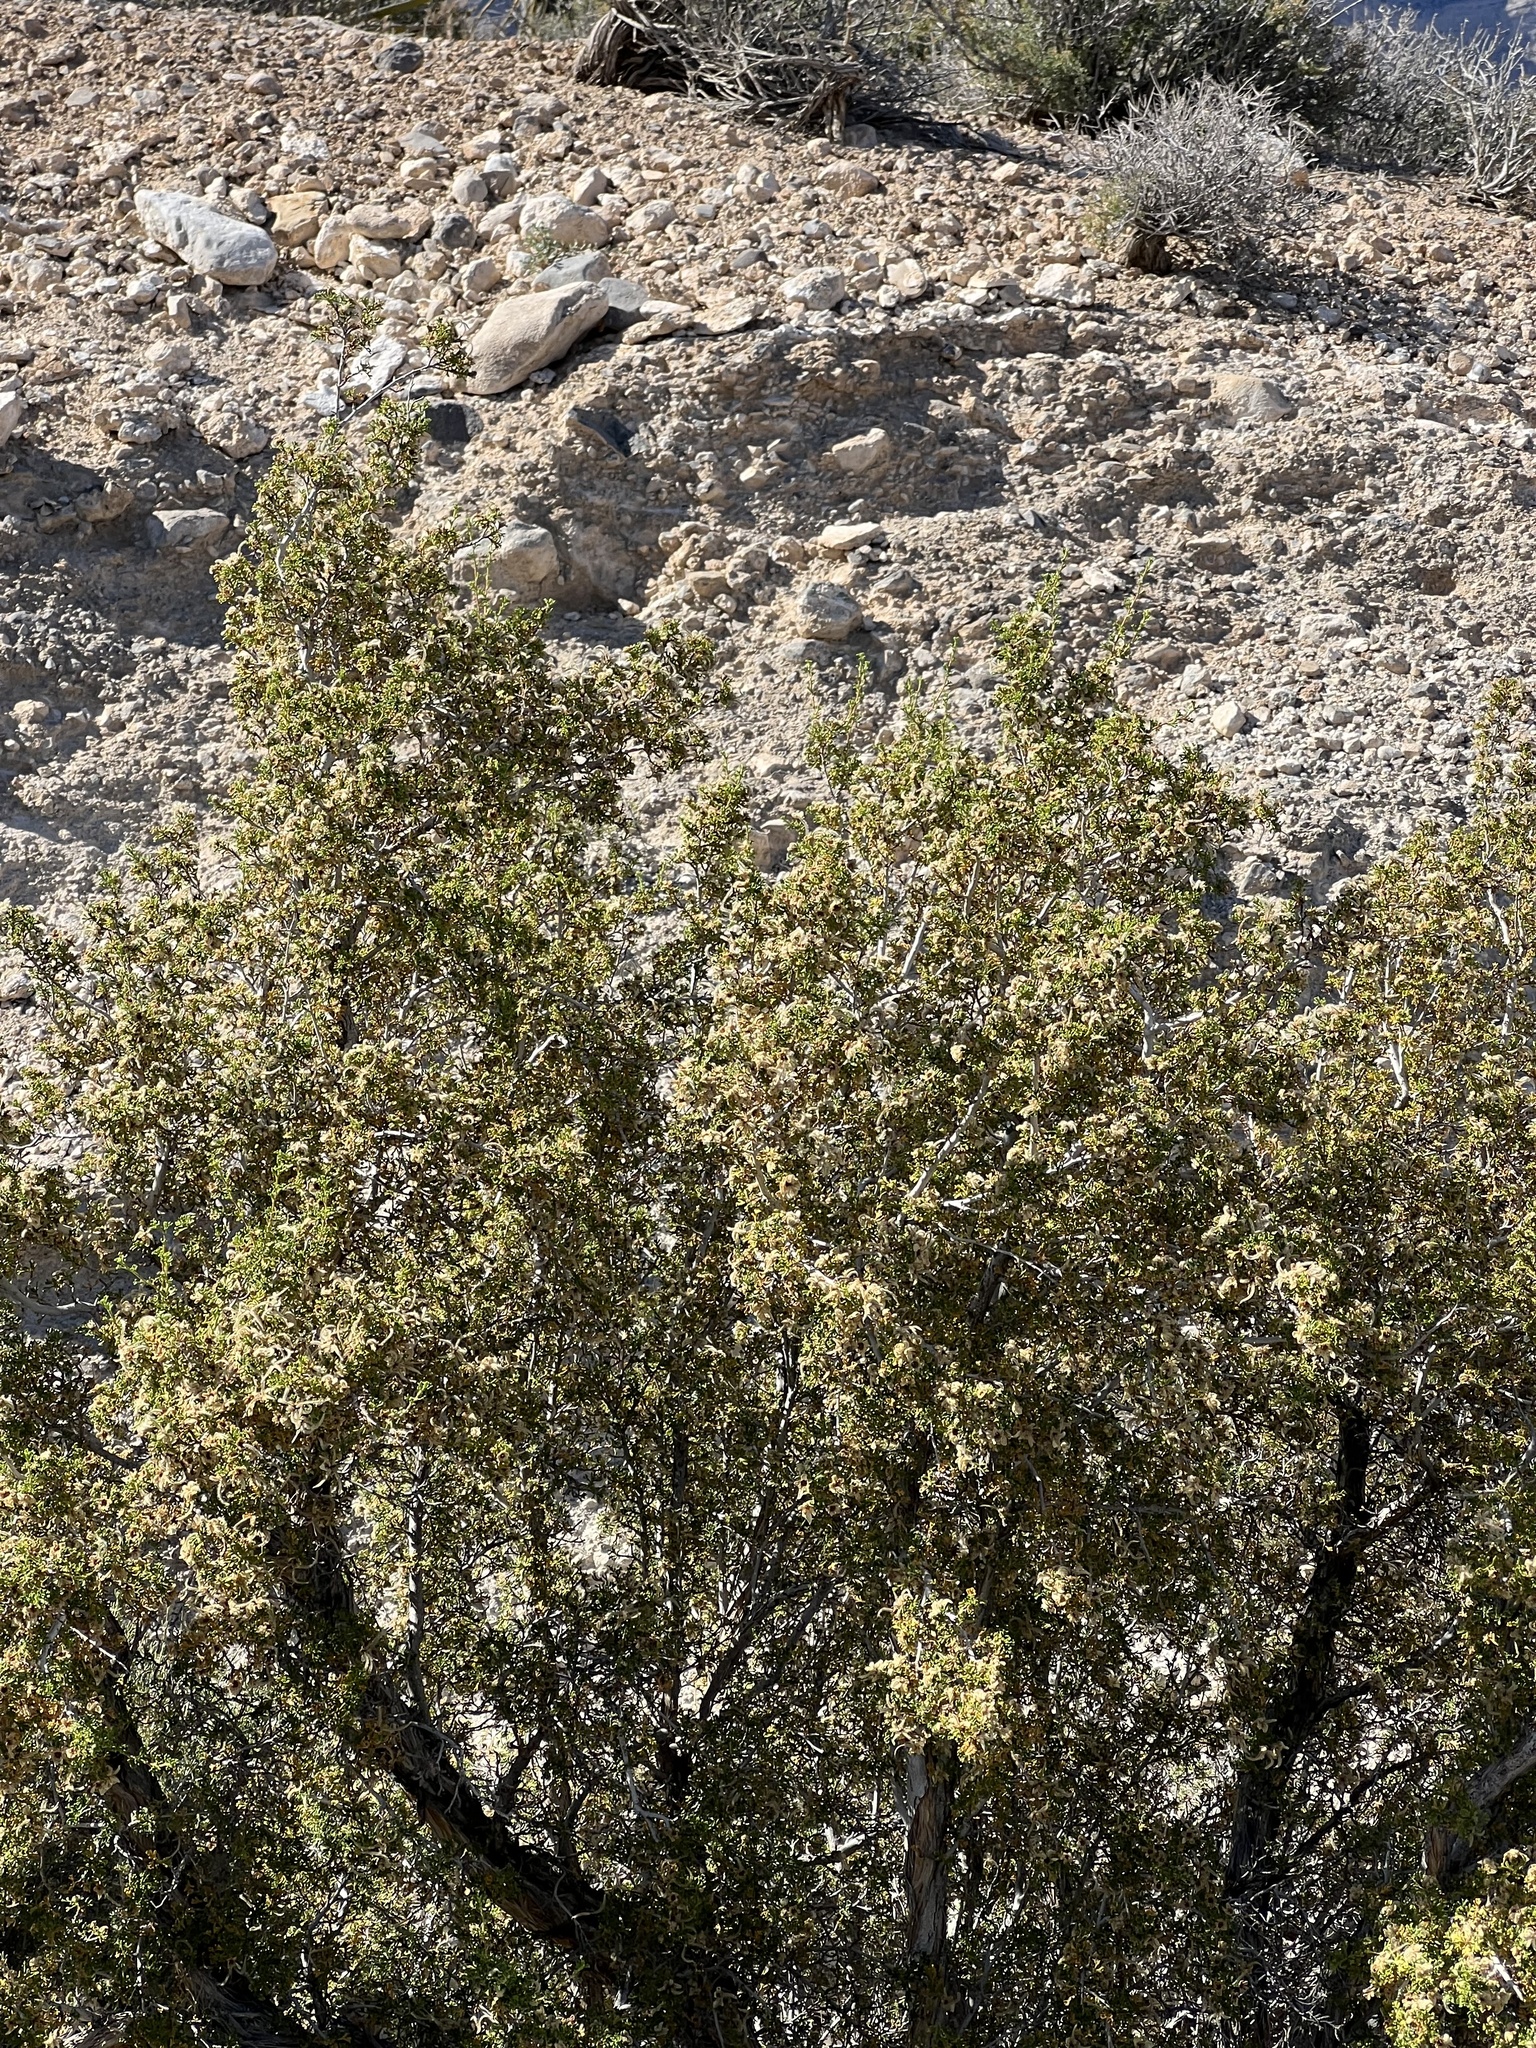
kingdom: Plantae
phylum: Tracheophyta
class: Magnoliopsida
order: Zygophyllales
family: Zygophyllaceae
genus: Larrea
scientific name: Larrea tridentata
